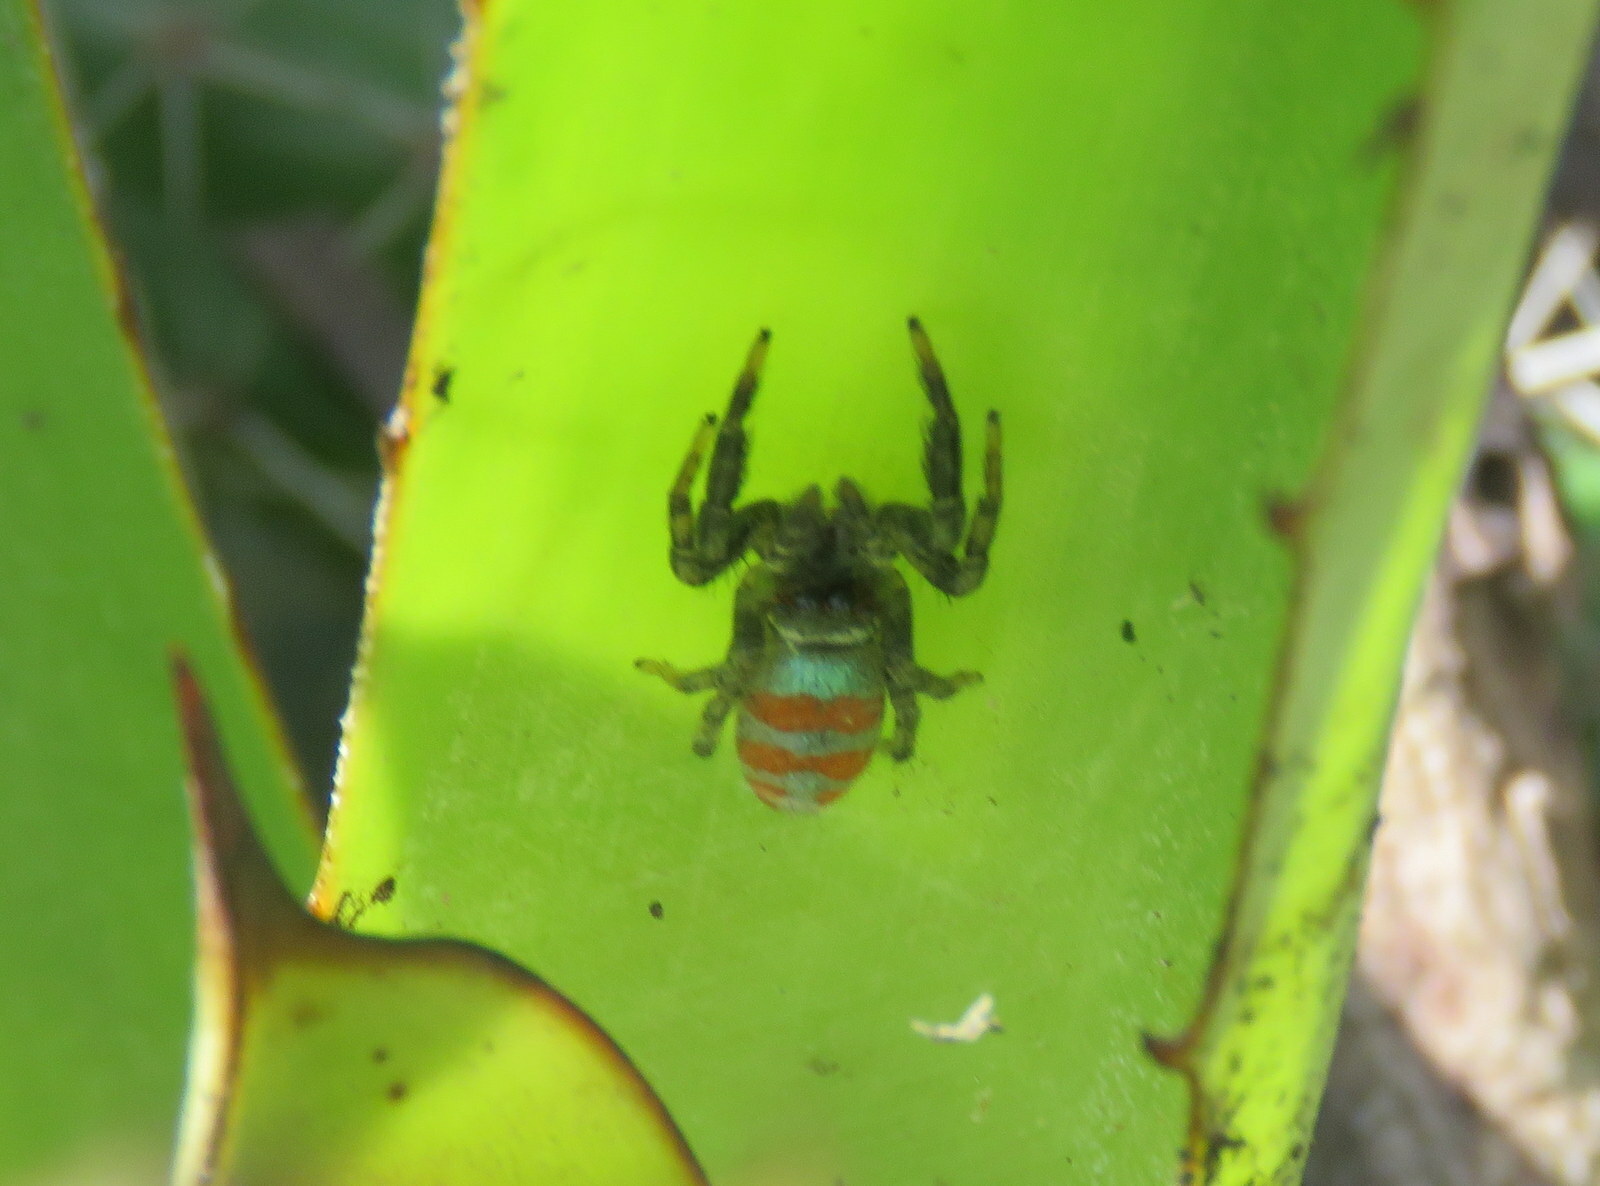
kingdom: Animalia
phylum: Arthropoda
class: Arachnida
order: Araneae
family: Salticidae
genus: Psecas
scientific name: Psecas sumptuosus
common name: Jumping spiders
